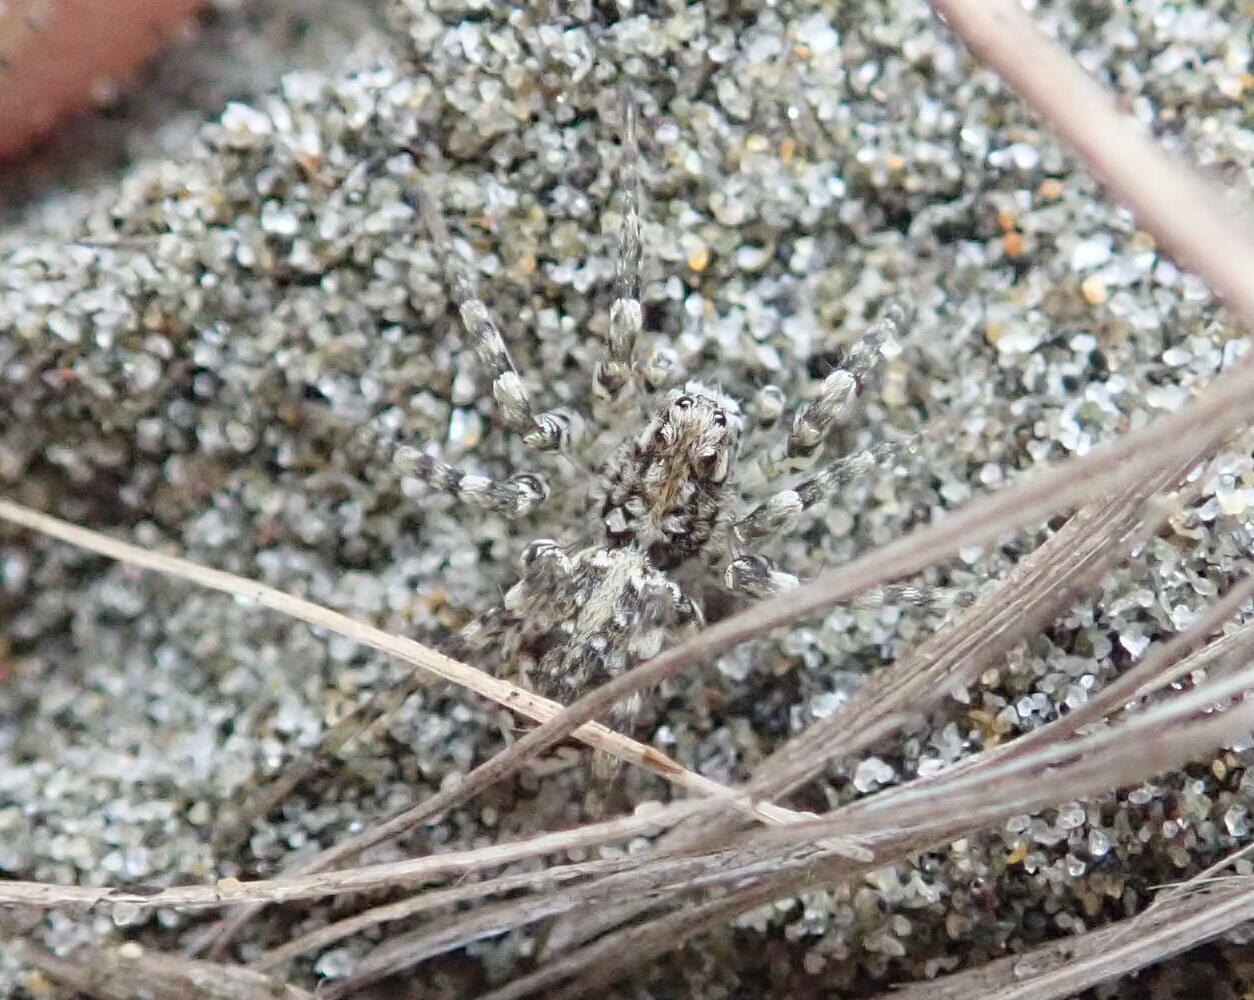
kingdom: Animalia
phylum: Arthropoda
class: Arachnida
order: Araneae
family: Lycosidae
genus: Anoteropsis
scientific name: Anoteropsis litoralis
